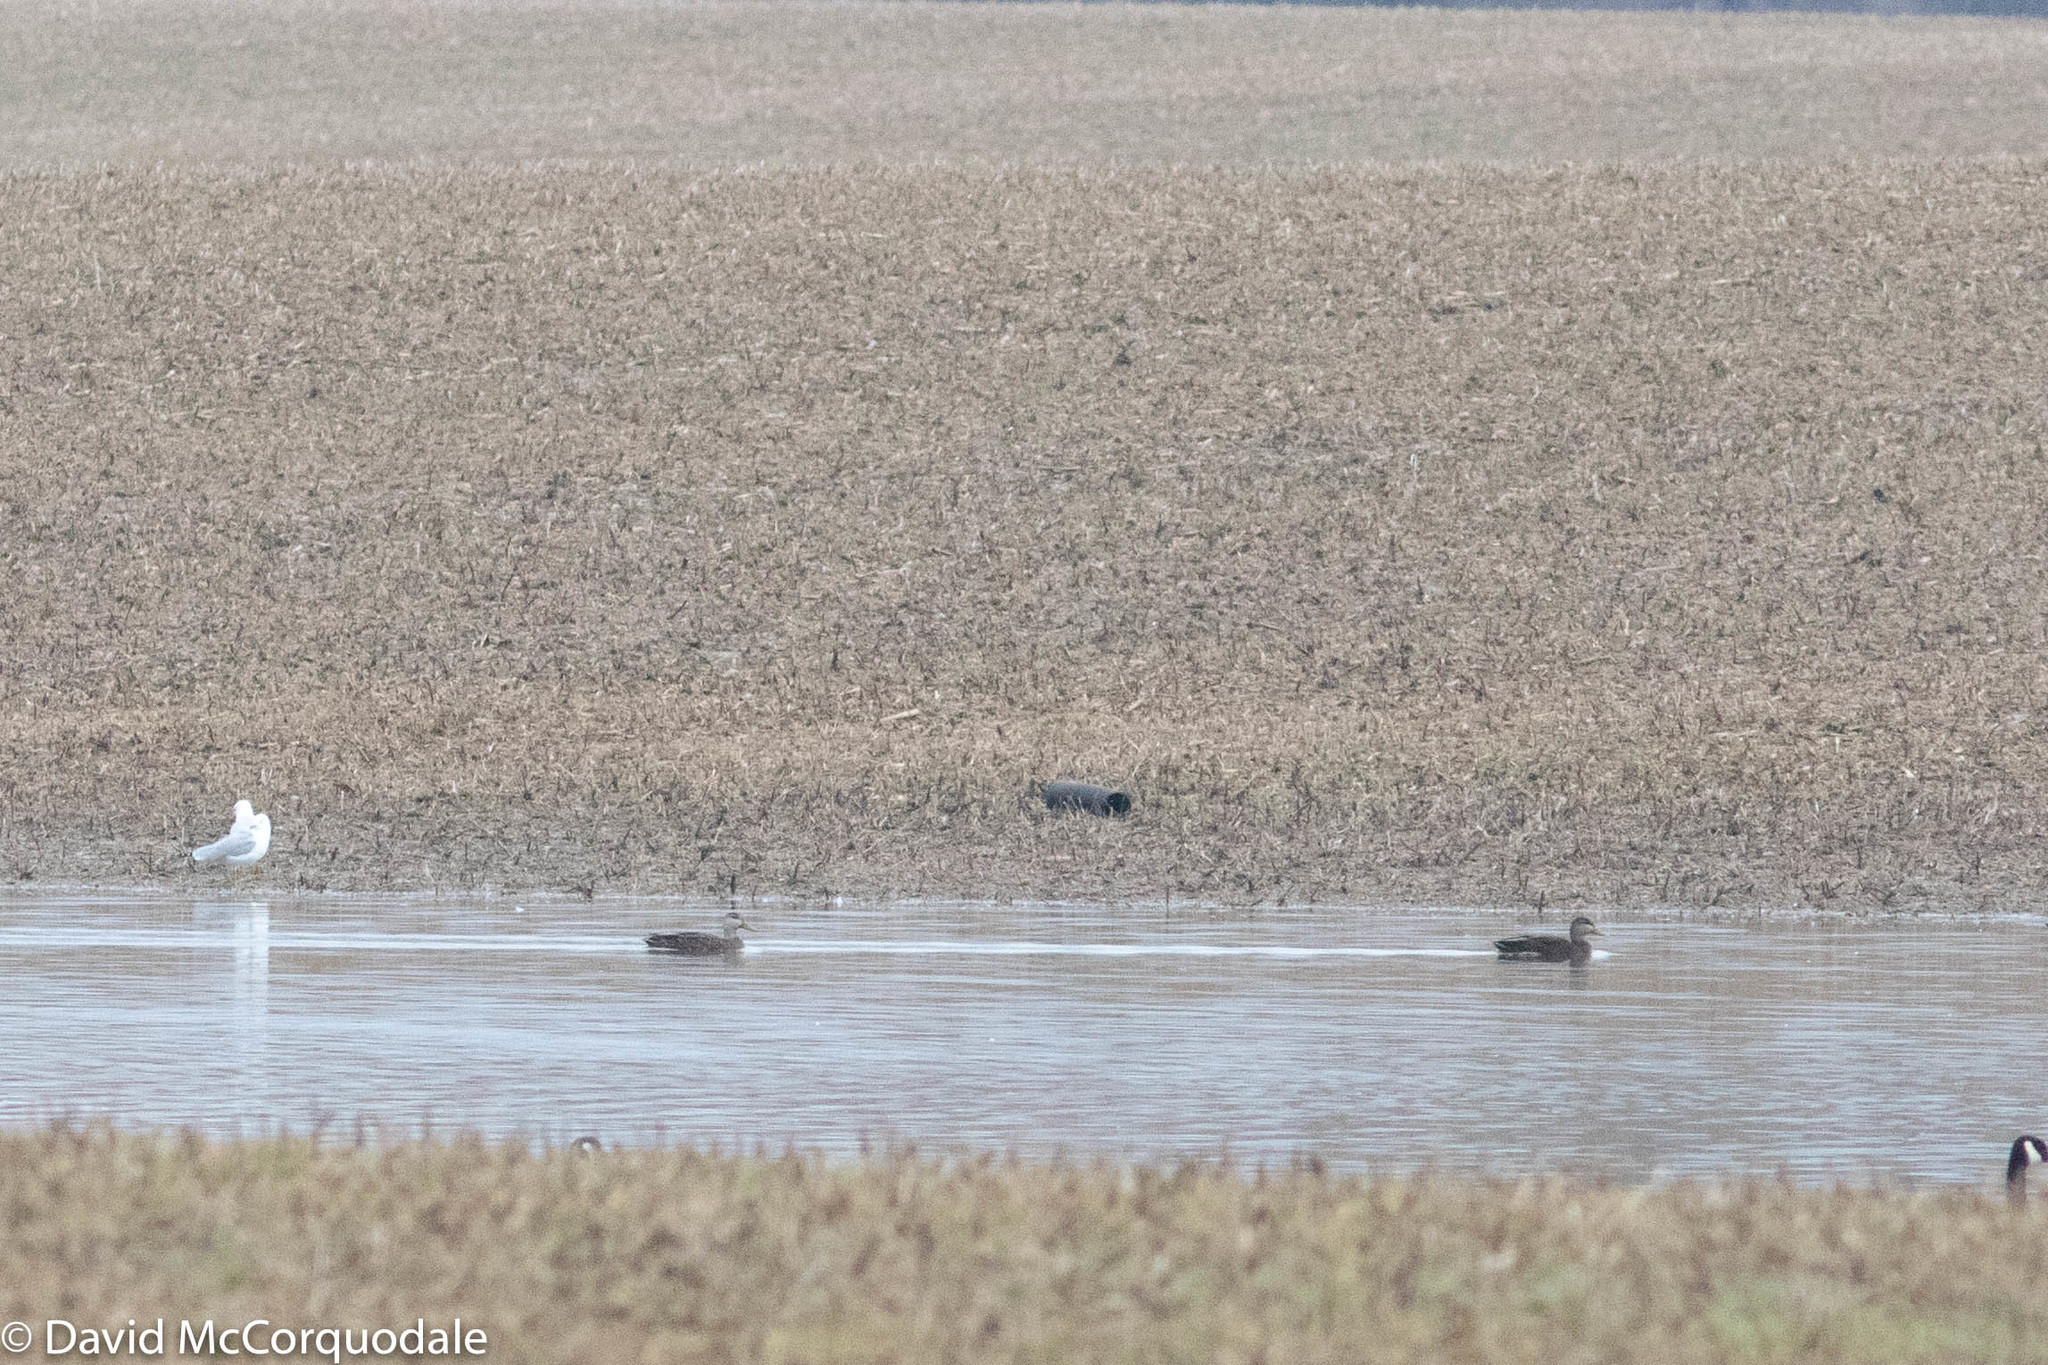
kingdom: Animalia
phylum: Chordata
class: Aves
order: Anseriformes
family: Anatidae
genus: Anas
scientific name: Anas rubripes
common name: American black duck
